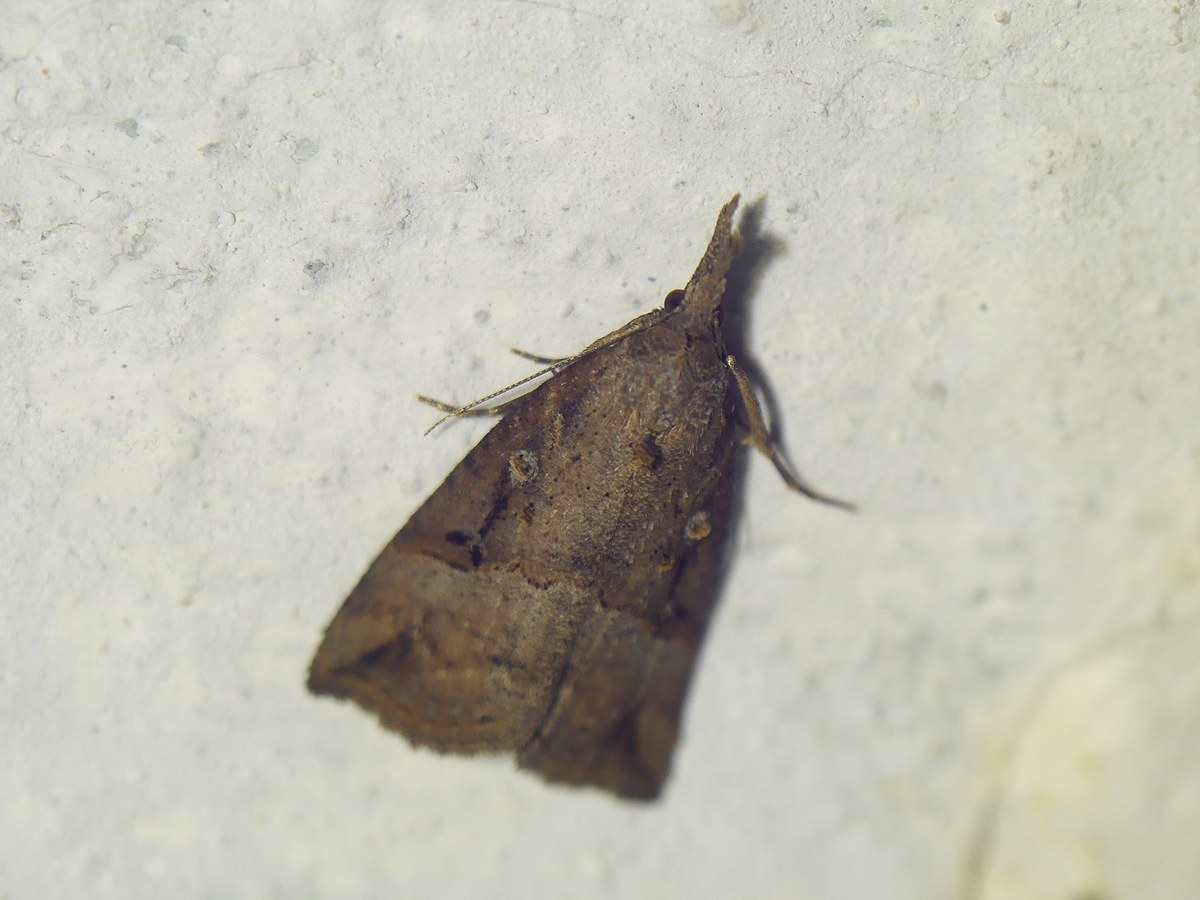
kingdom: Animalia
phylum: Arthropoda
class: Insecta
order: Lepidoptera
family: Erebidae
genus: Hypena
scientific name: Hypena rostralis
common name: Buttoned snout
